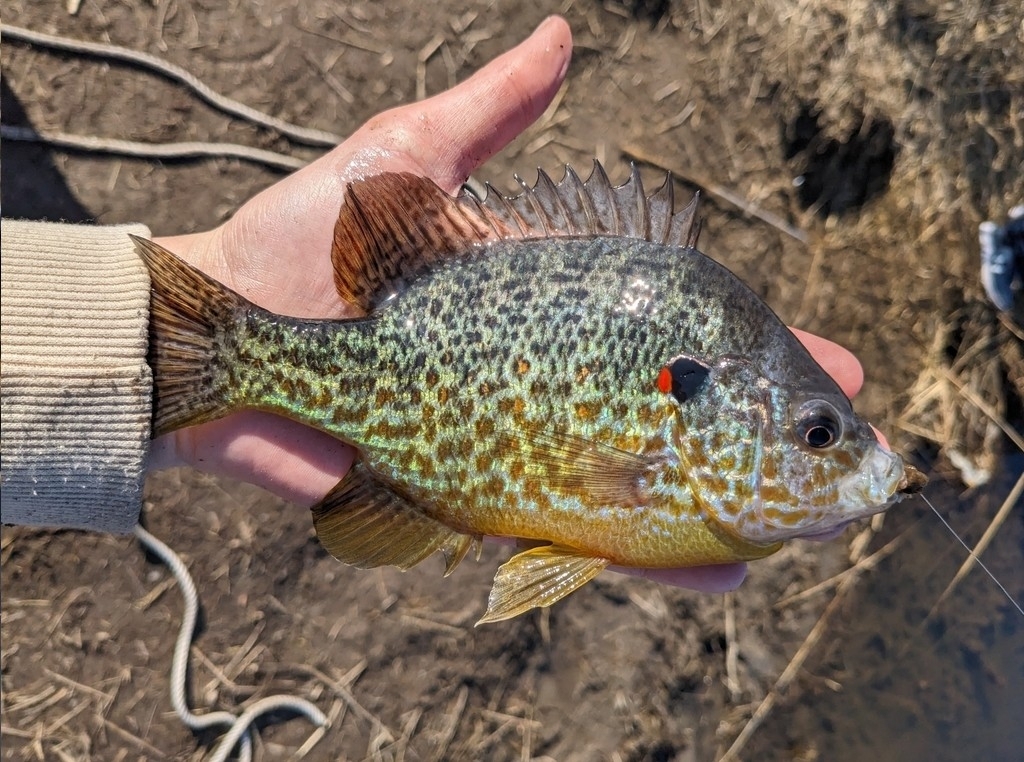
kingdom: Animalia
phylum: Chordata
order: Perciformes
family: Centrarchidae
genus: Lepomis
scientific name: Lepomis gibbosus
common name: Pumpkinseed
